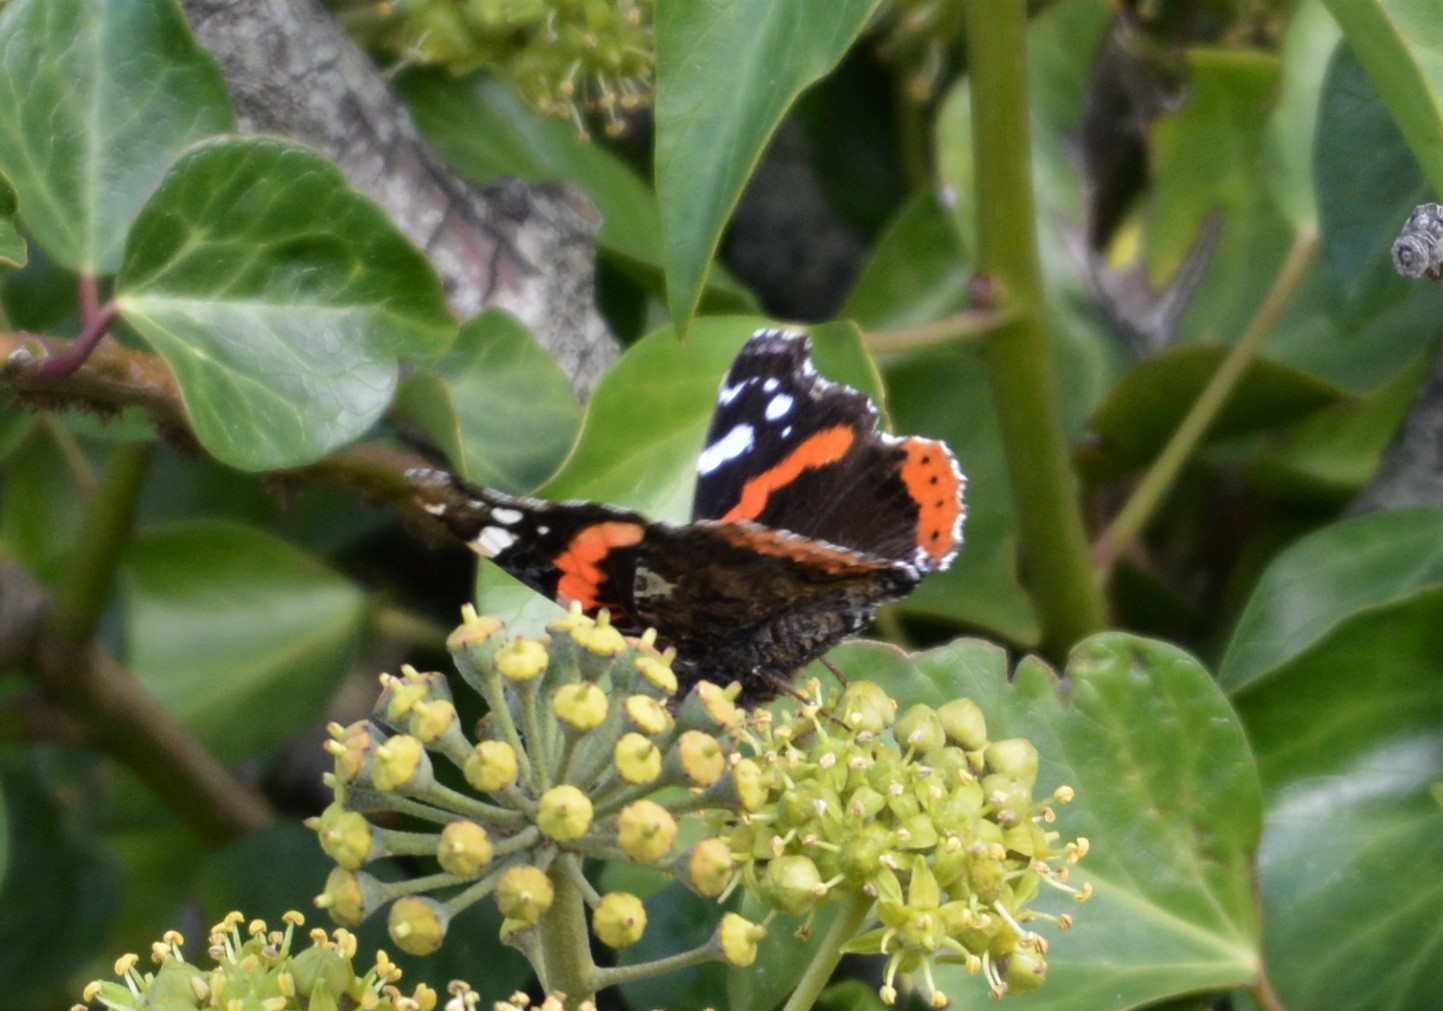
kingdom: Animalia
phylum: Arthropoda
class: Insecta
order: Lepidoptera
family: Nymphalidae
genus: Vanessa
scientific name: Vanessa atalanta
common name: Red admiral
